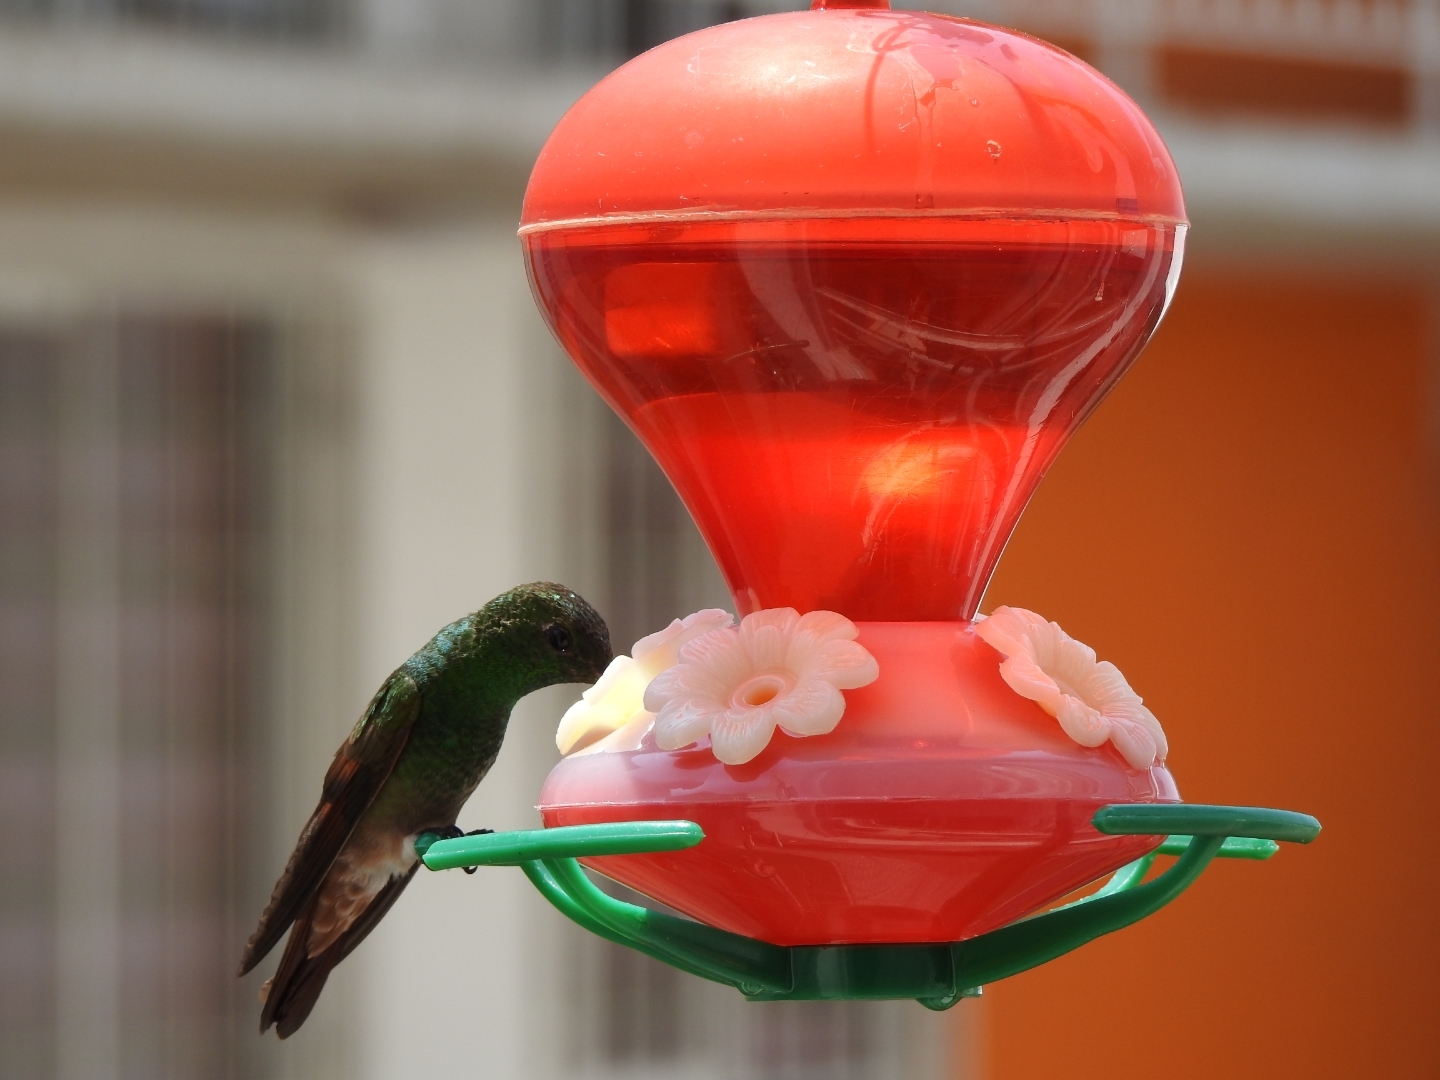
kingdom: Animalia
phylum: Chordata
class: Aves
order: Apodiformes
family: Trochilidae
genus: Saucerottia
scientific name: Saucerottia beryllina
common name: Berylline hummingbird
